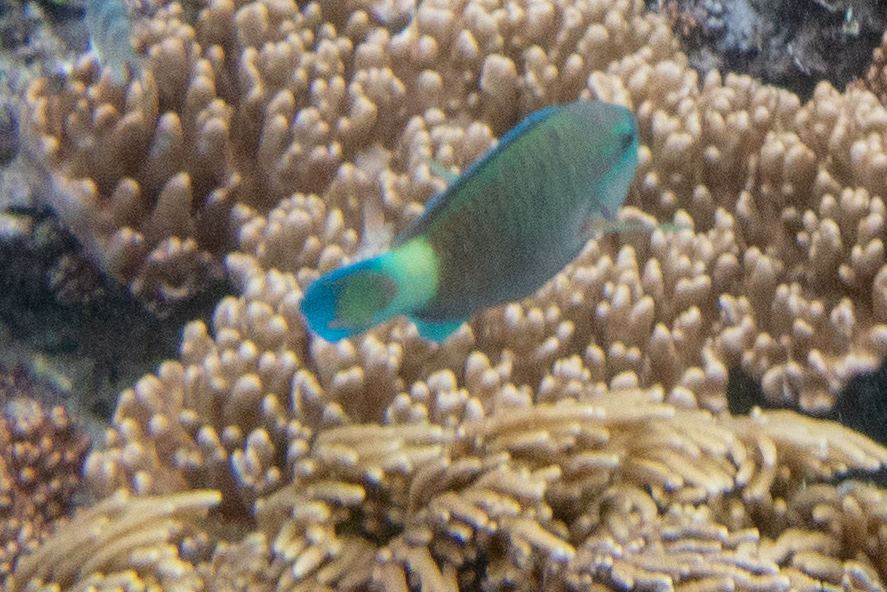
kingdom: Animalia
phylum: Chordata
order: Perciformes
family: Scaridae
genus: Chlorurus
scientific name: Chlorurus spilurus
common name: Bullethead parrotfish
